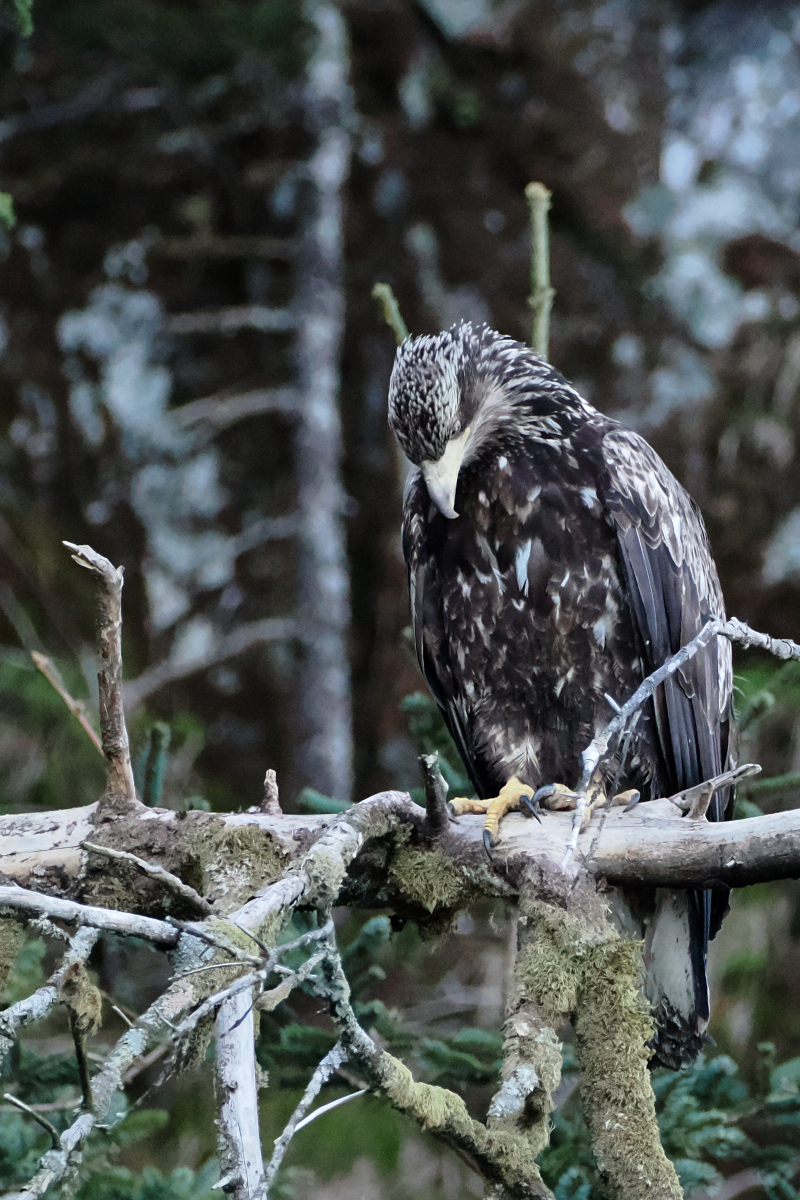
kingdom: Animalia
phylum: Chordata
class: Aves
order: Accipitriformes
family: Accipitridae
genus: Haliaeetus
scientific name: Haliaeetus leucocephalus
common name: Bald eagle
